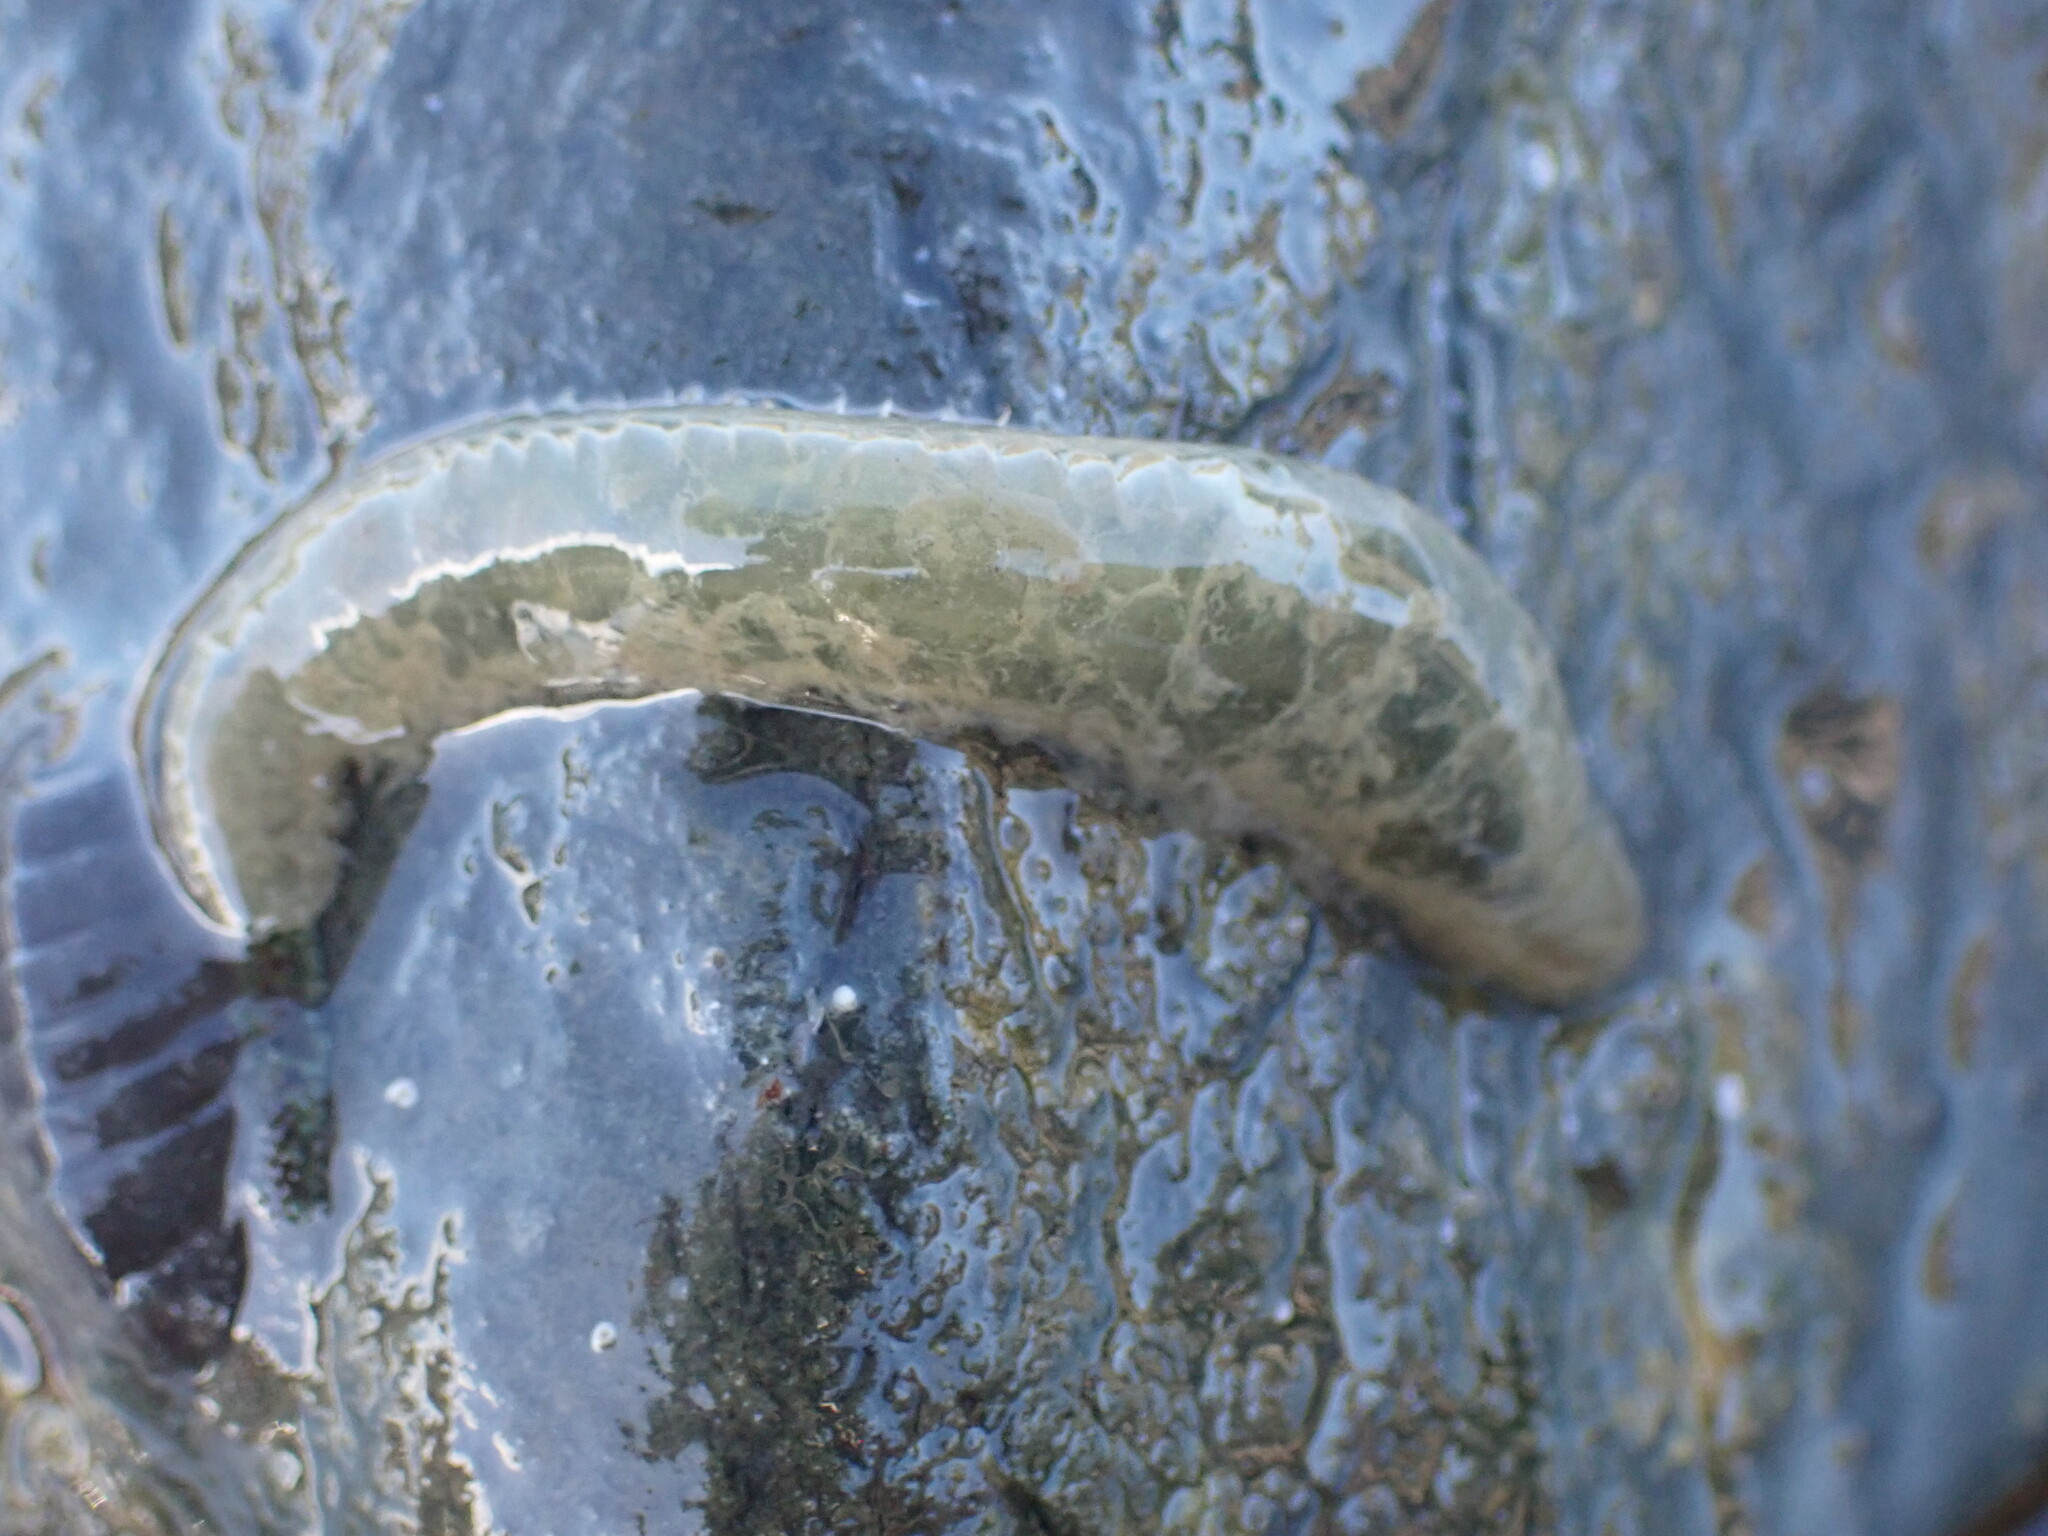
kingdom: Animalia
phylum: Annelida
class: Polychaeta
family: Flabelligeridae
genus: Flabelligera
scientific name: Flabelligera bicolor
